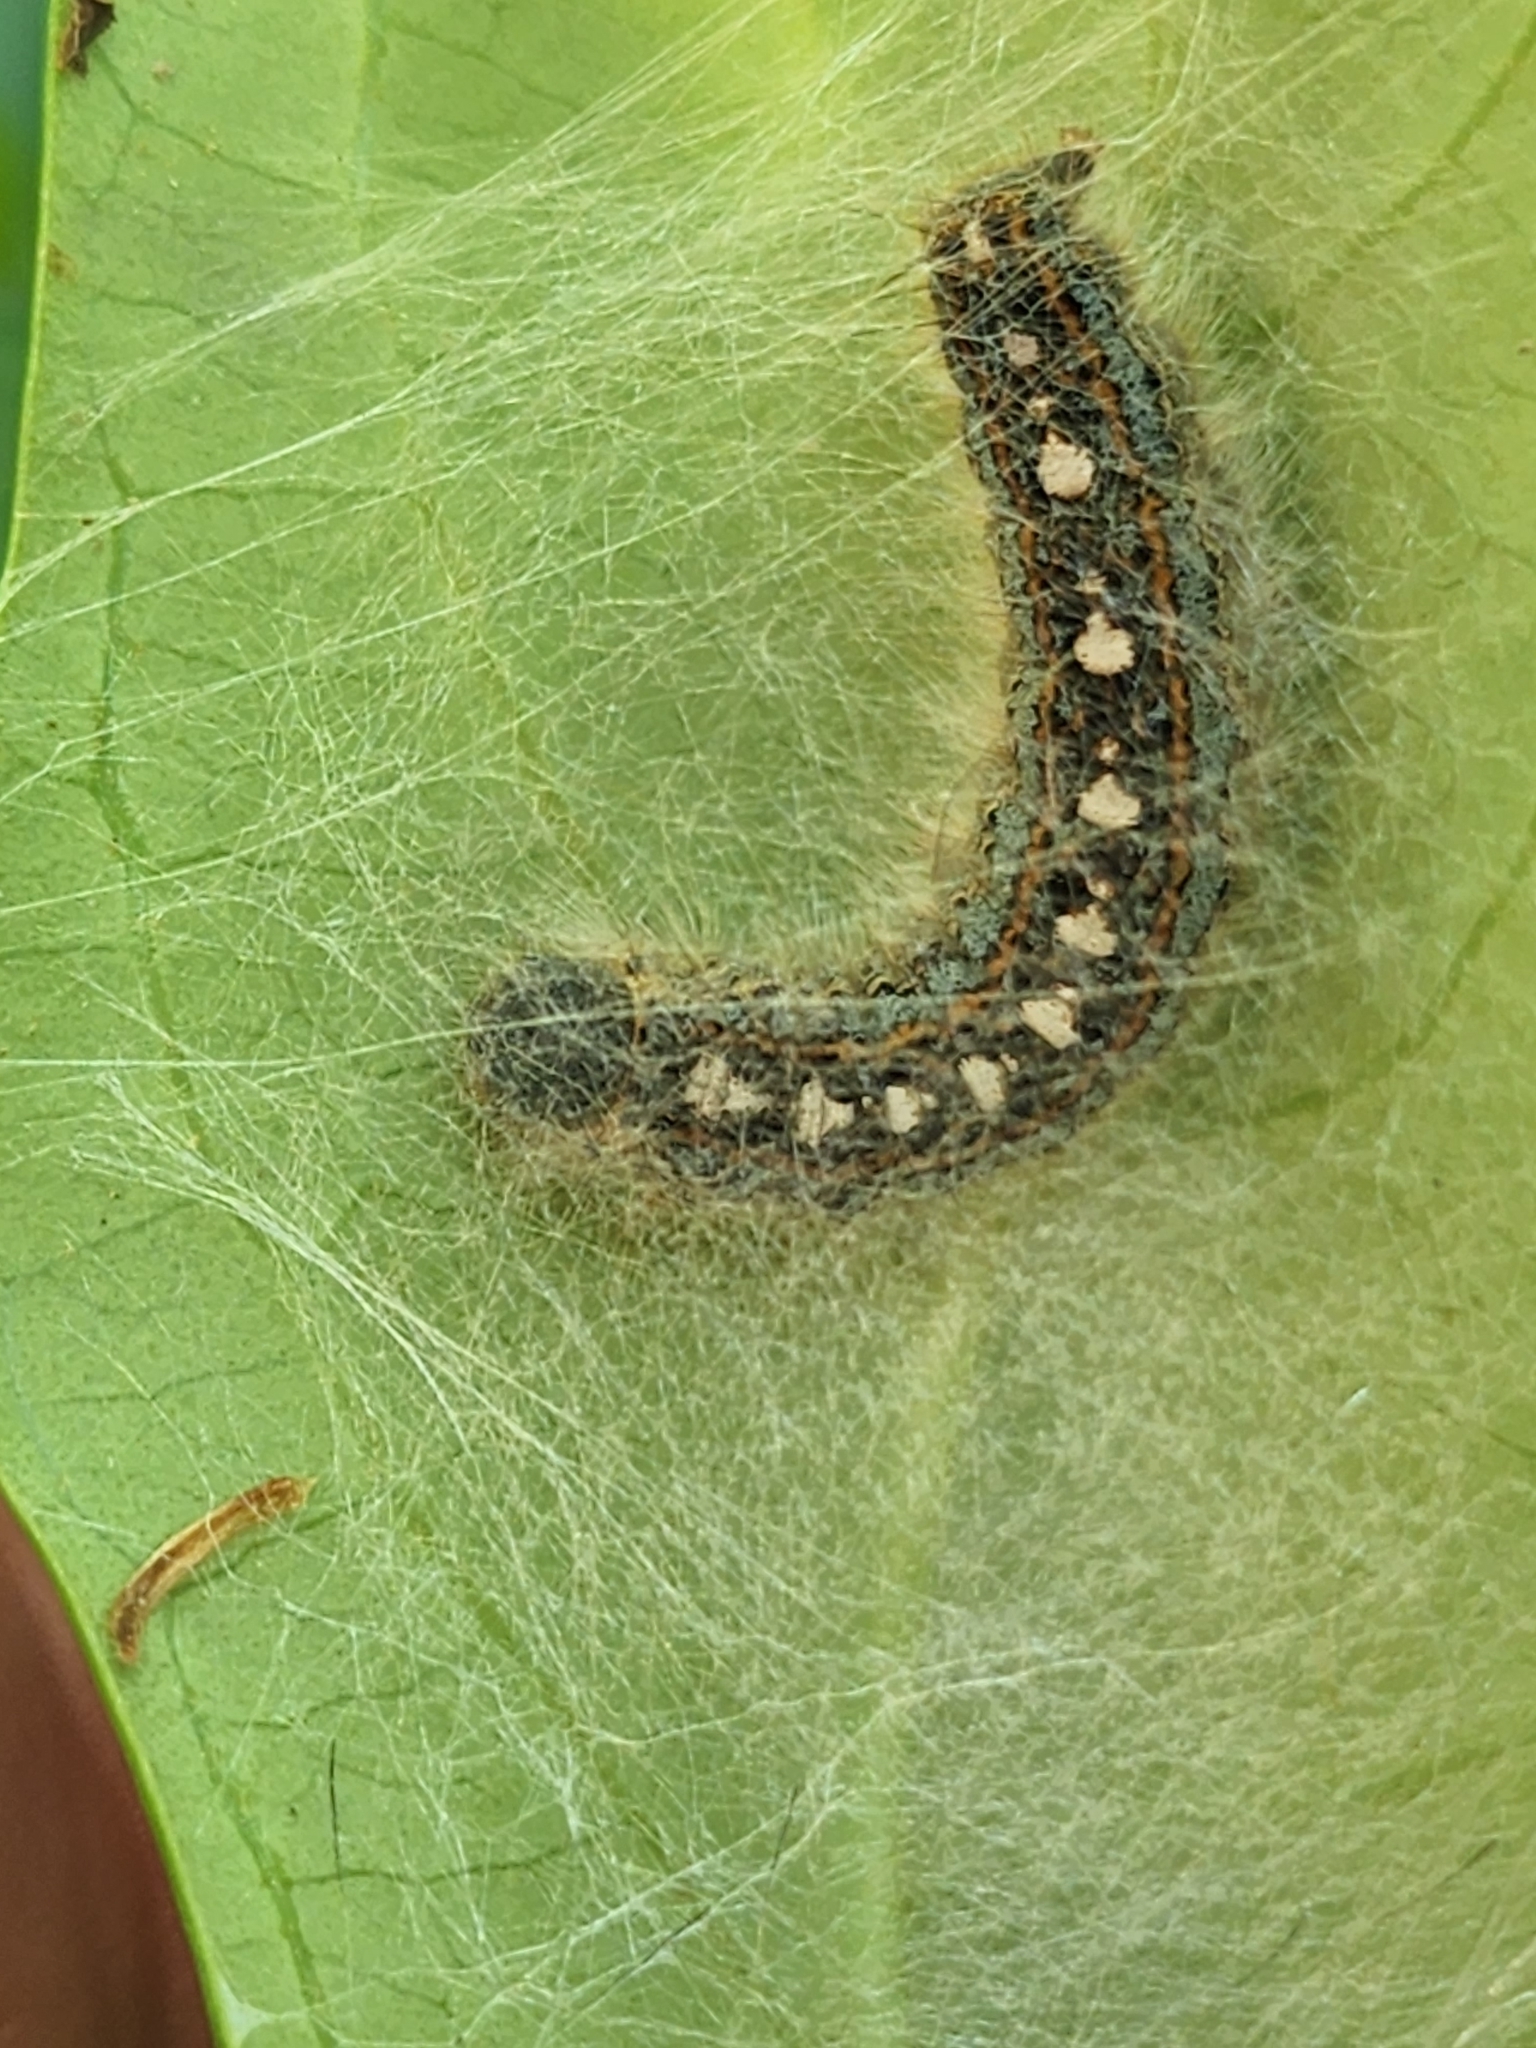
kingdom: Animalia
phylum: Arthropoda
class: Insecta
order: Lepidoptera
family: Lasiocampidae
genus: Malacosoma
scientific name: Malacosoma disstria
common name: Forest tent caterpillar
